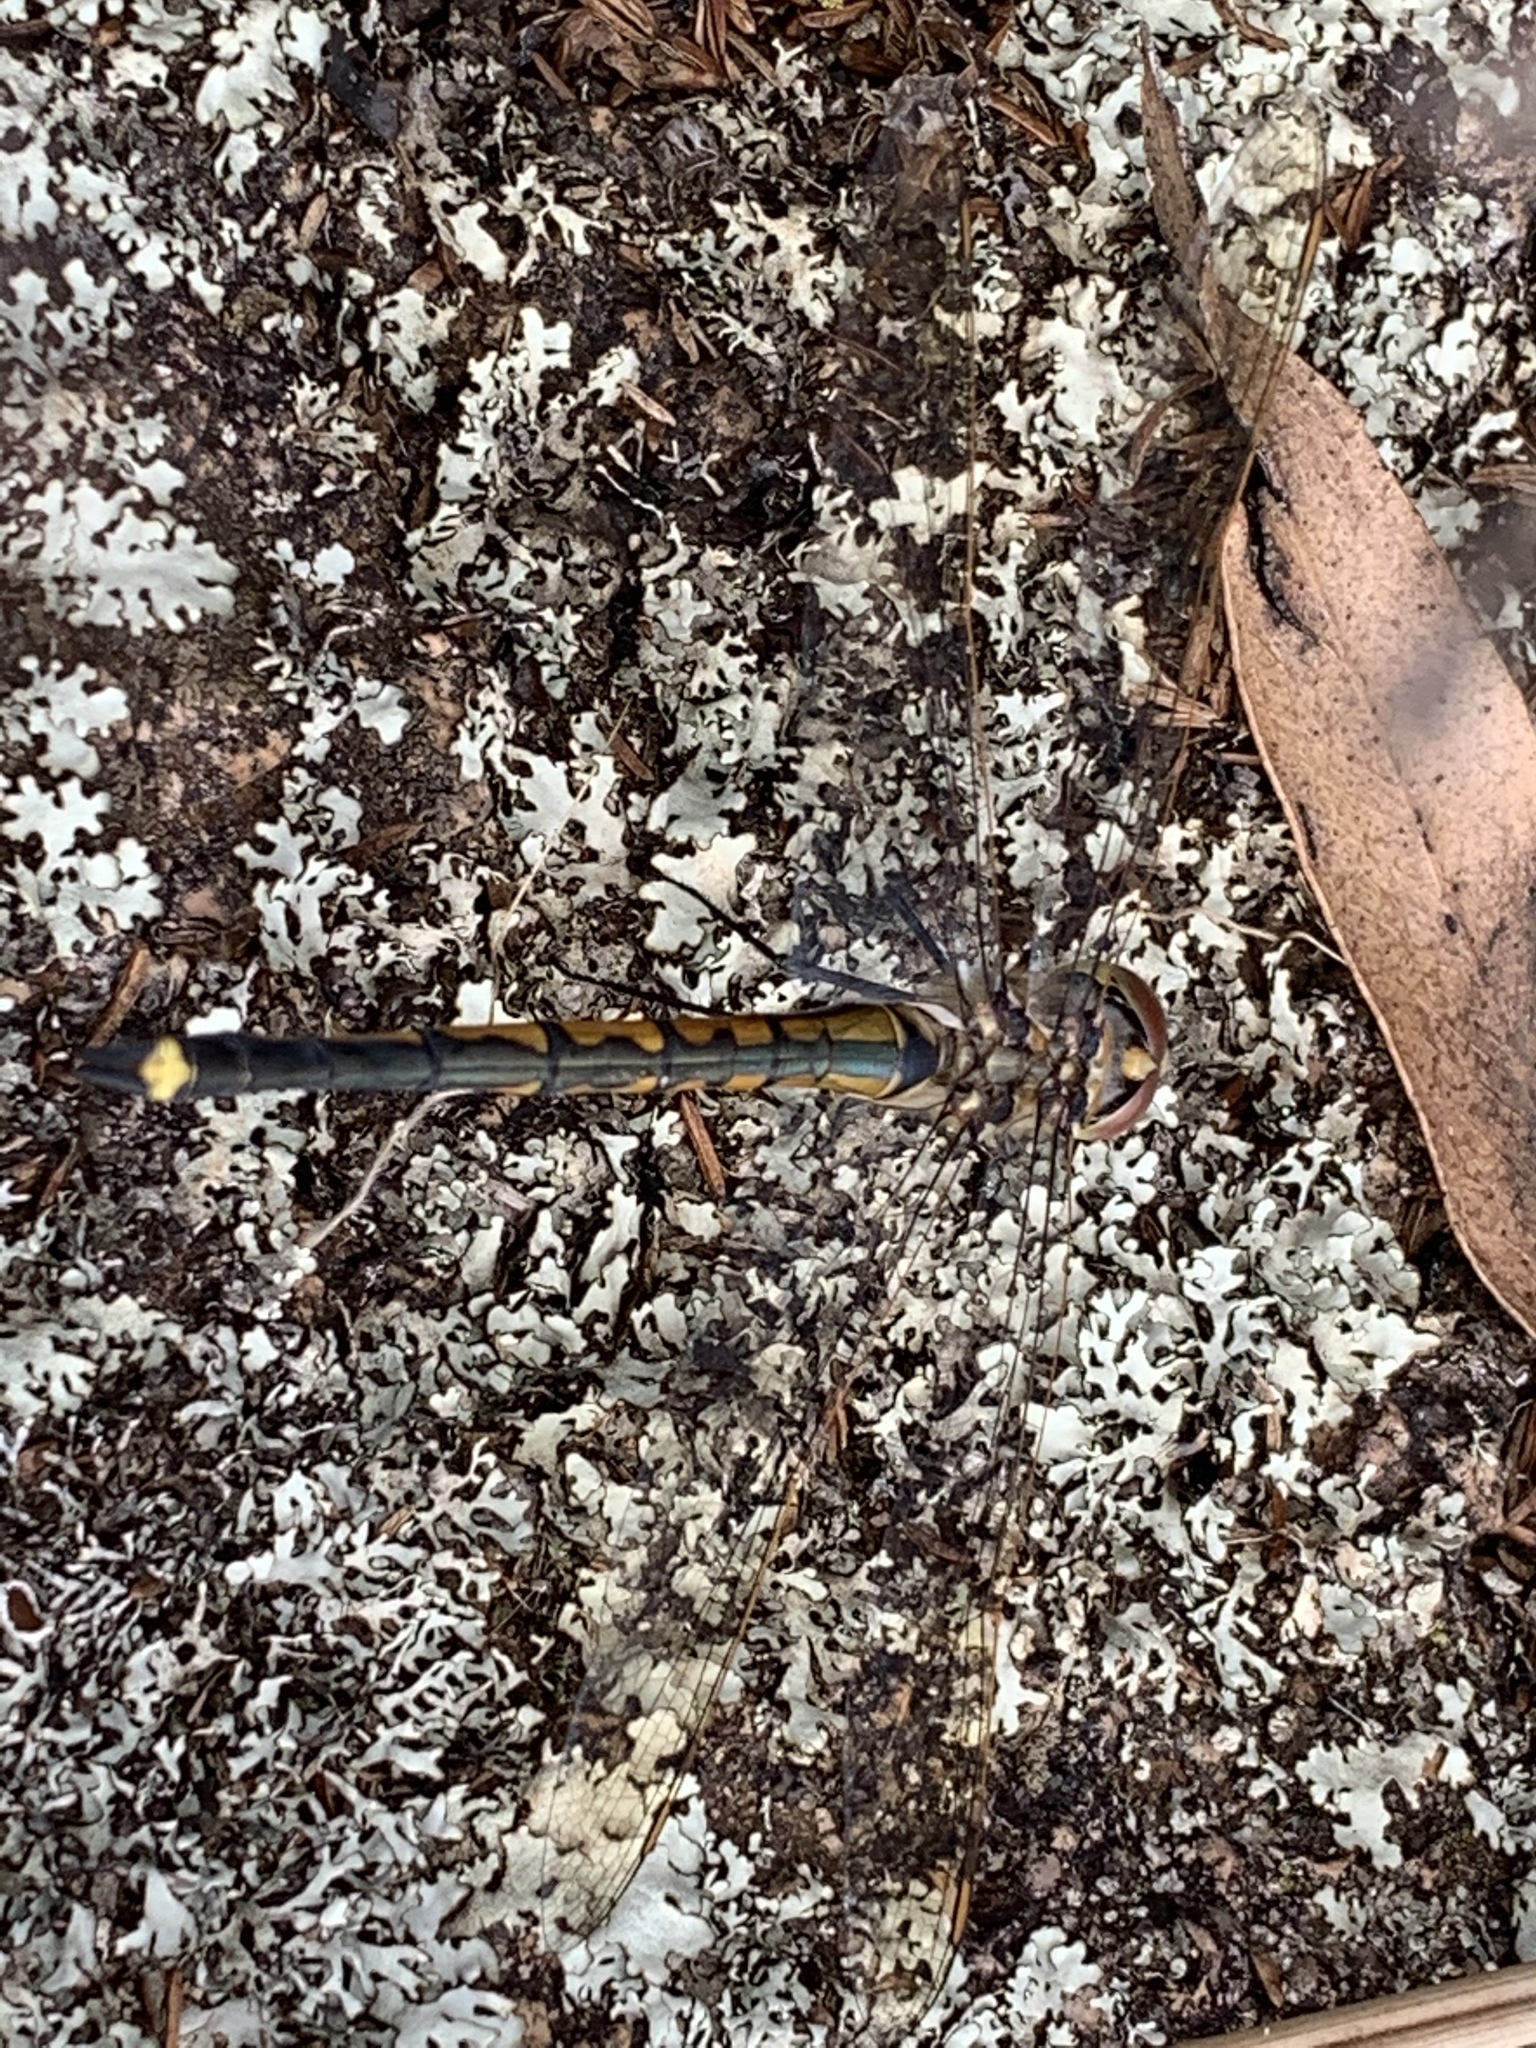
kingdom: Animalia
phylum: Arthropoda
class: Insecta
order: Odonata
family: Corduliidae
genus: Hemicordulia
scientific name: Hemicordulia tau
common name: Tau emerald
